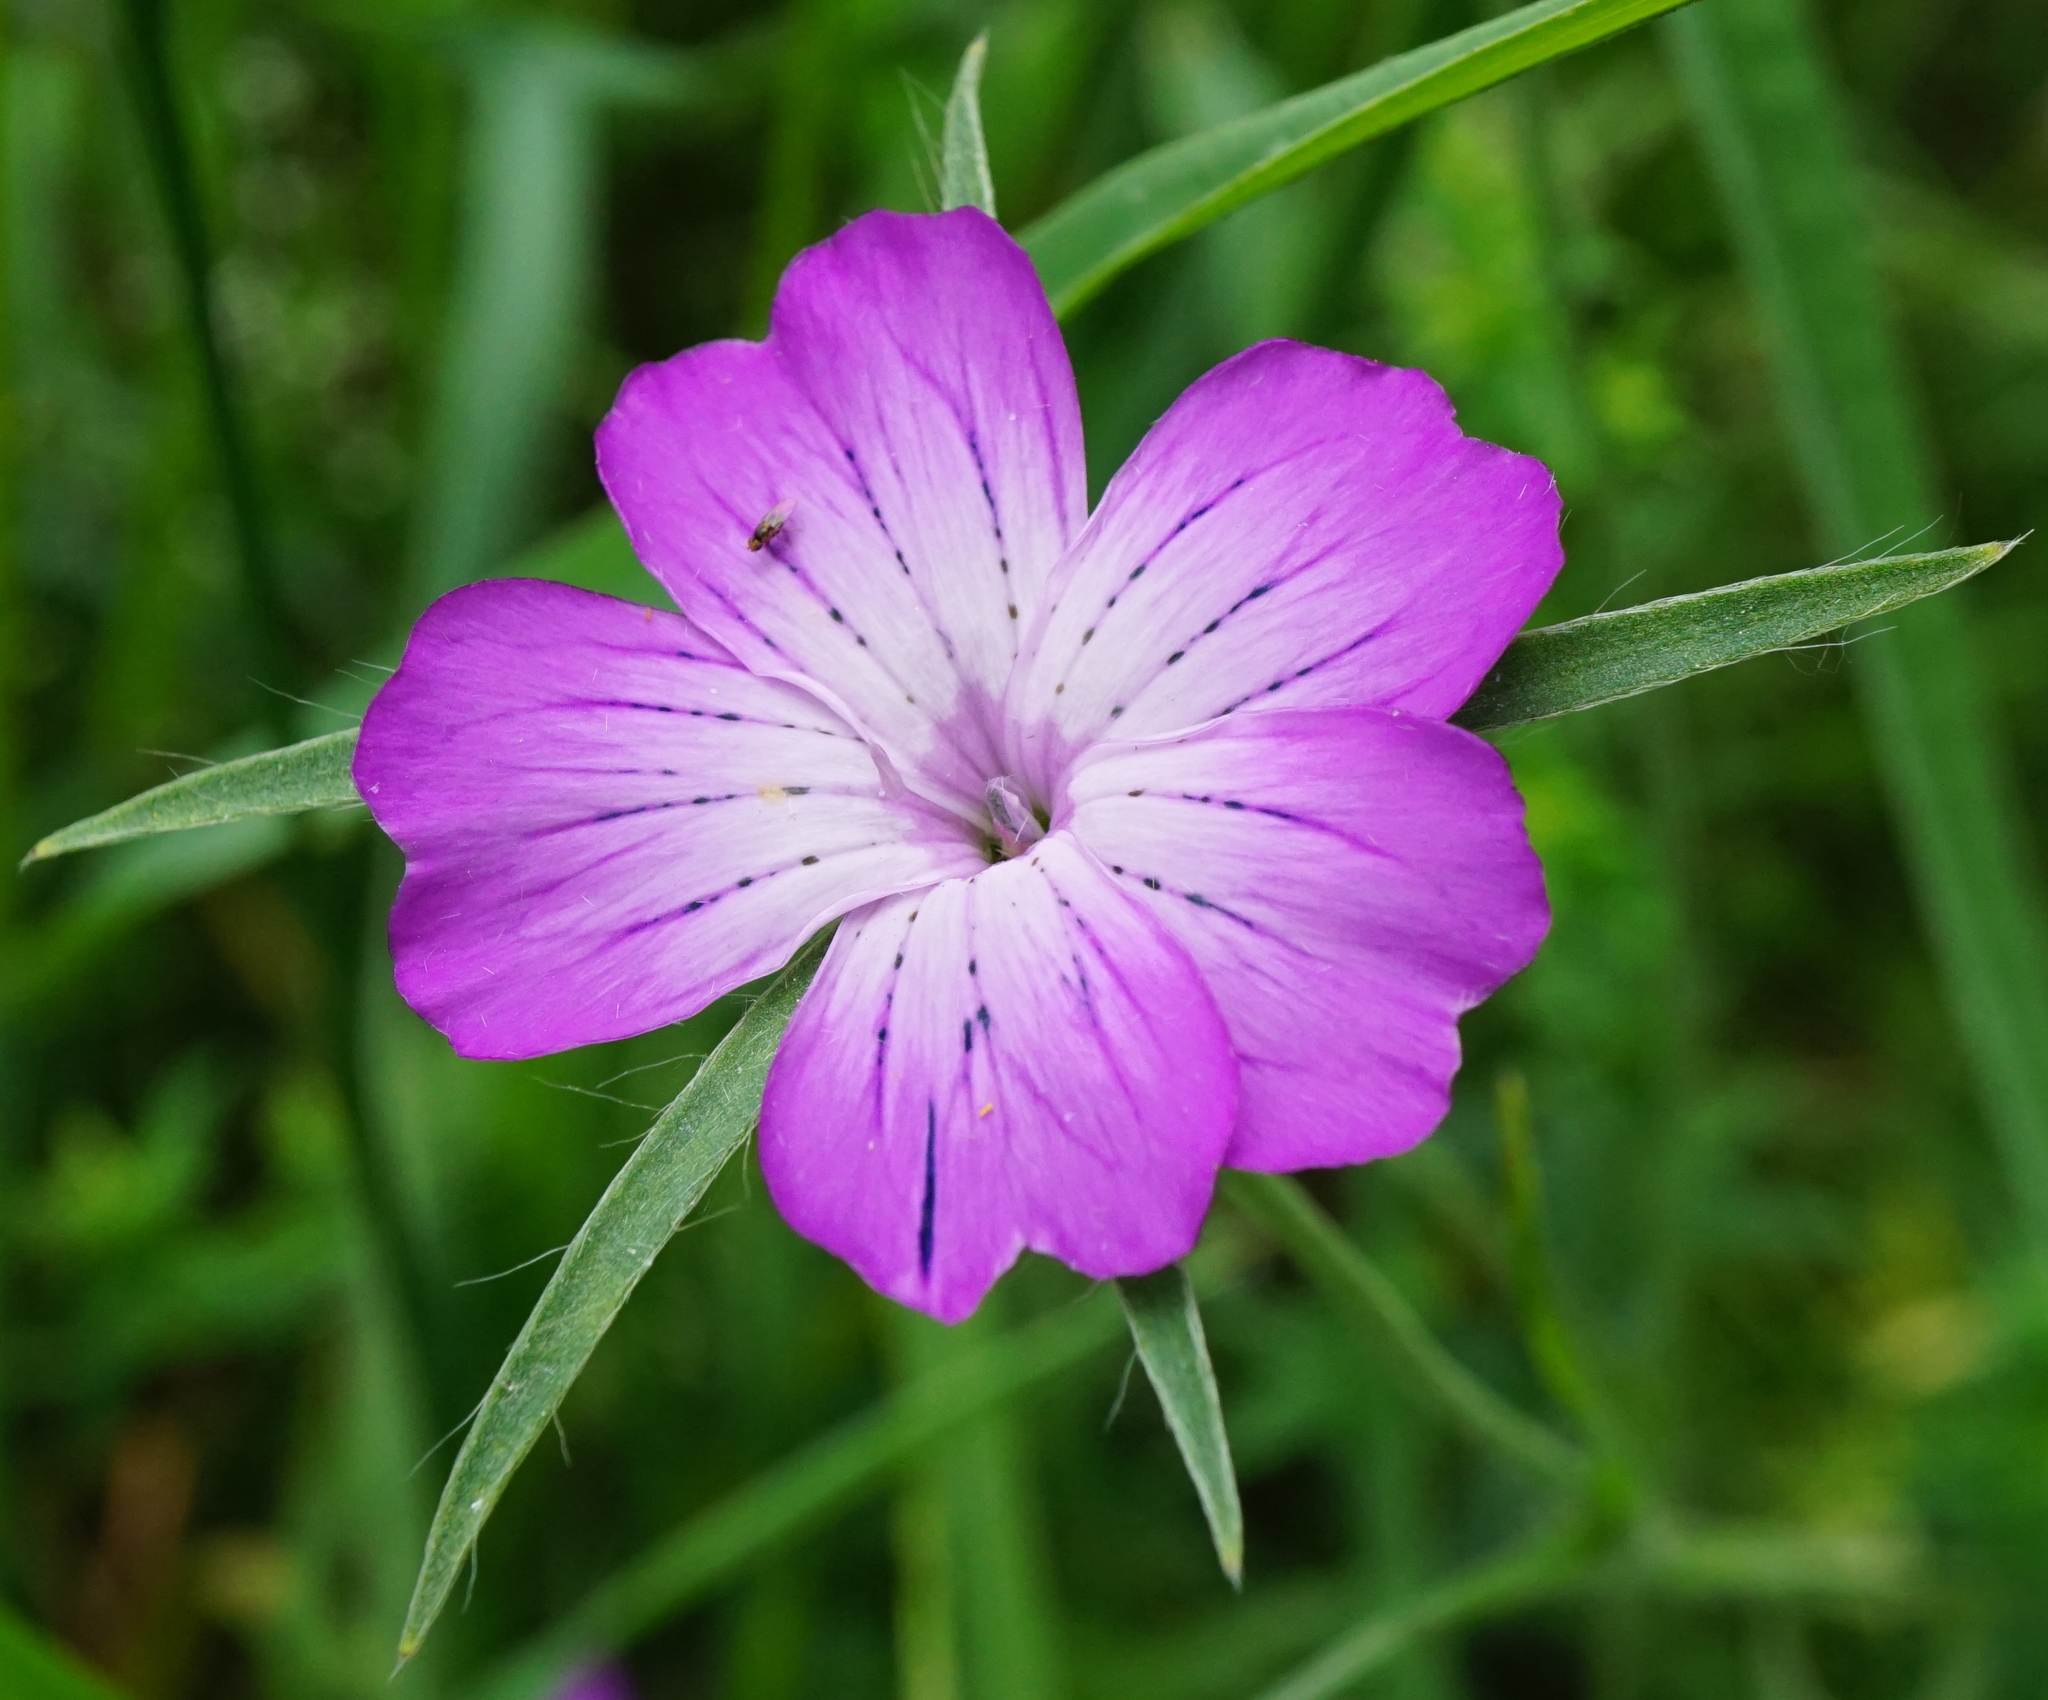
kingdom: Plantae
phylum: Tracheophyta
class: Magnoliopsida
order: Caryophyllales
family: Caryophyllaceae
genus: Agrostemma
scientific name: Agrostemma githago
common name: Common corncockle
